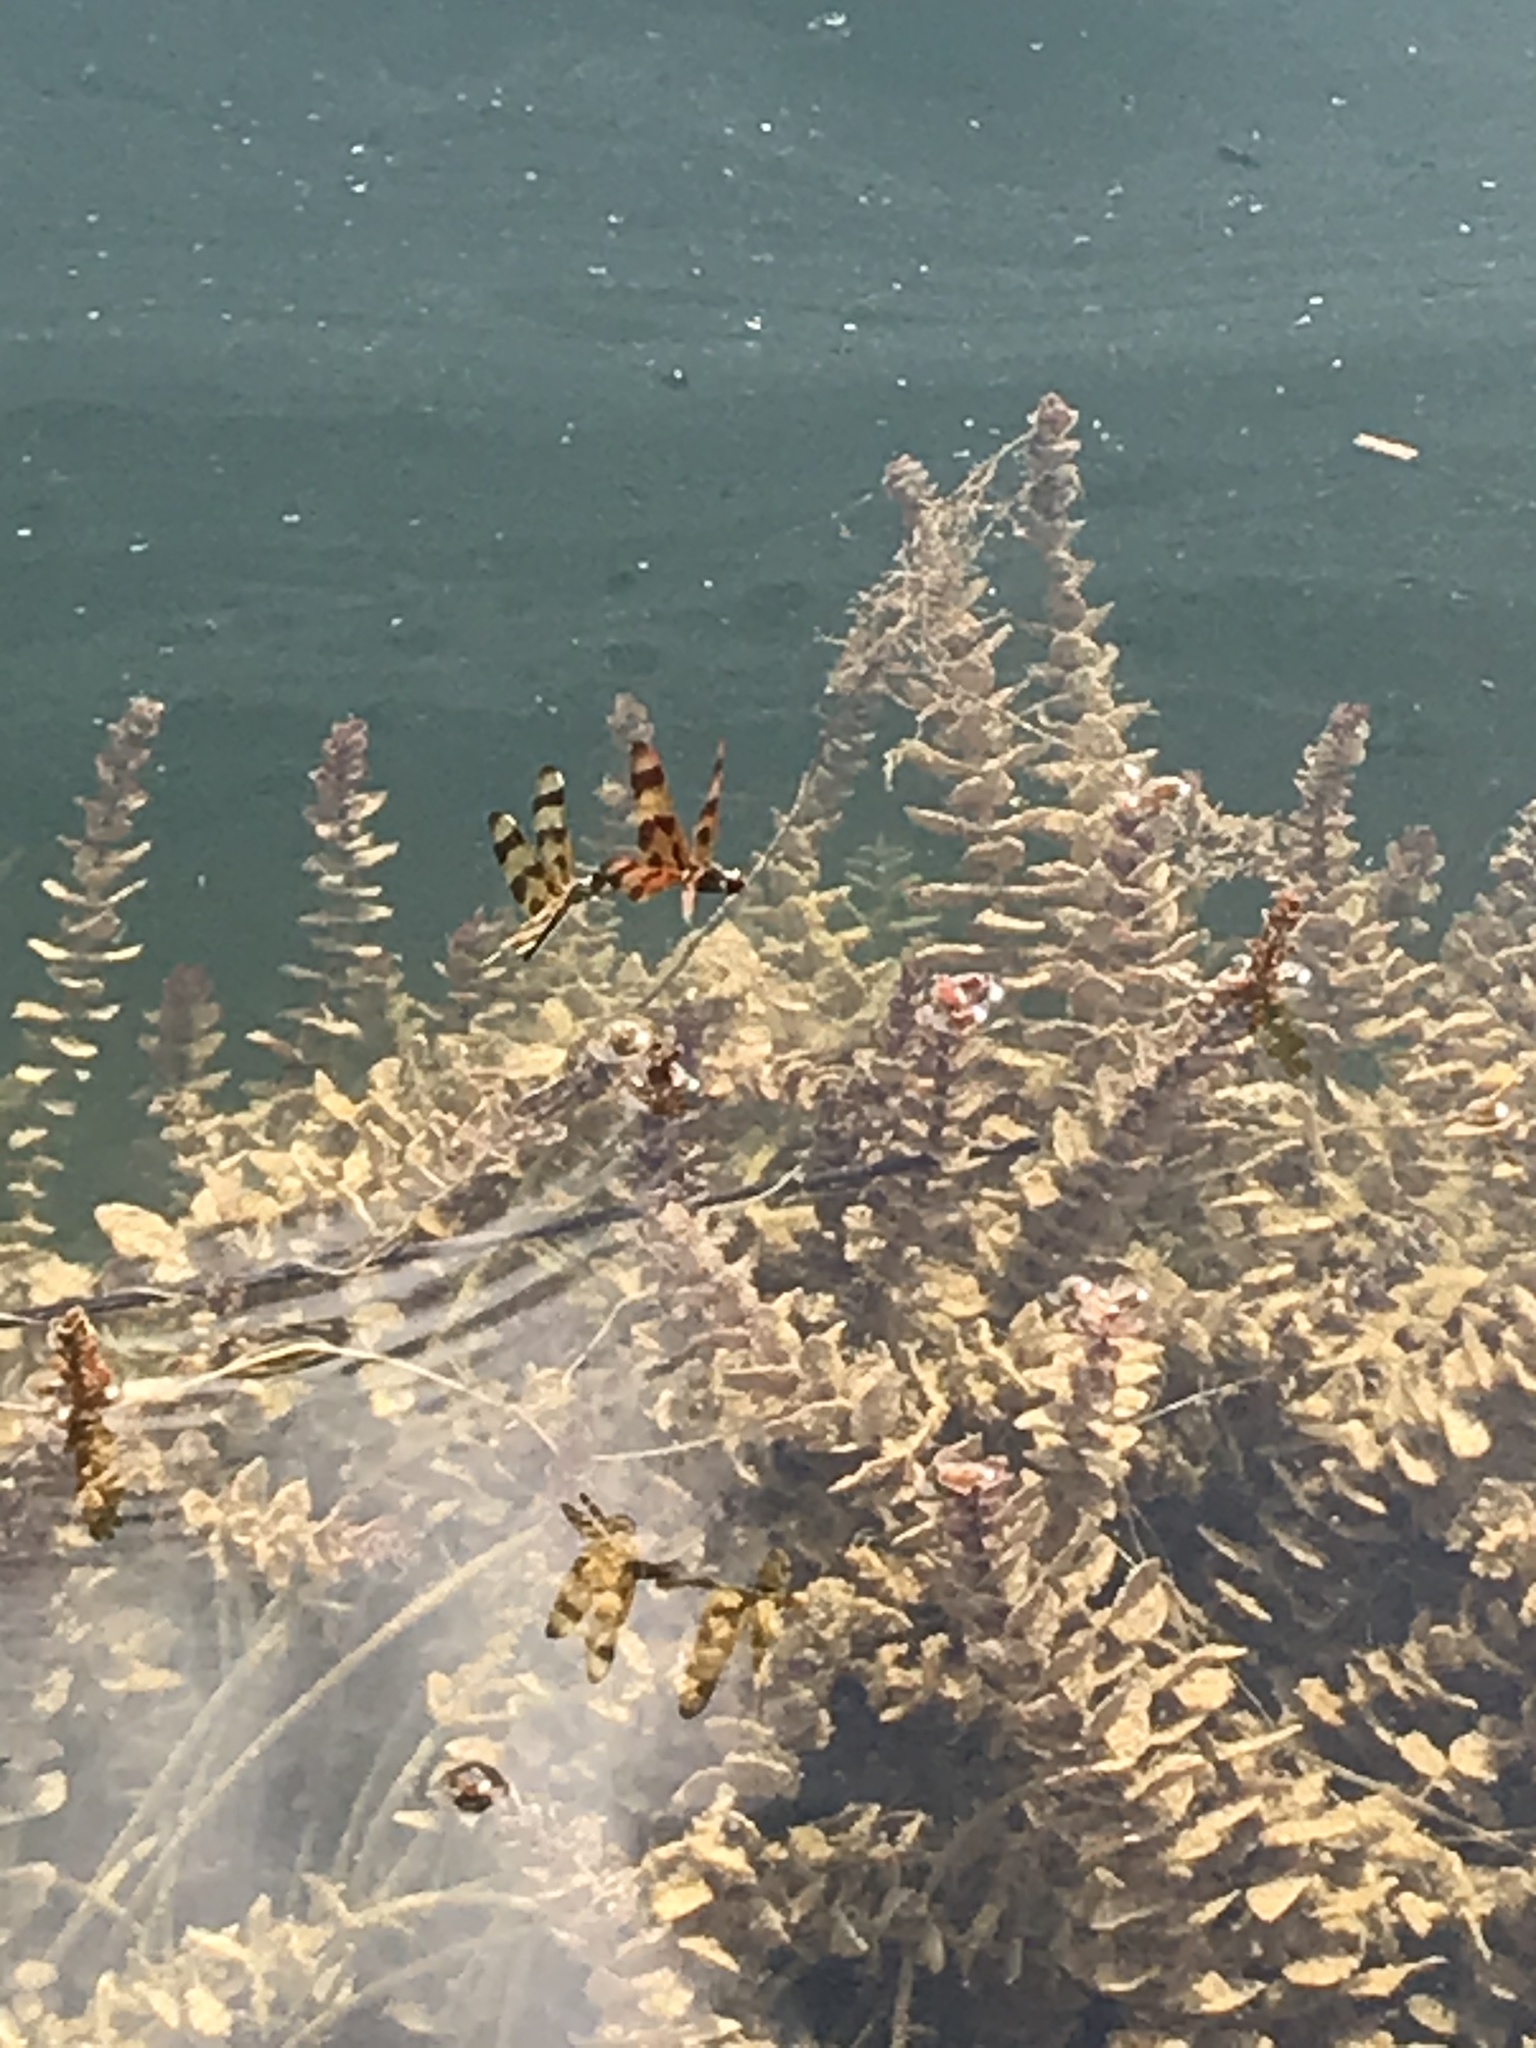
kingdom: Animalia
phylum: Arthropoda
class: Insecta
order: Odonata
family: Libellulidae
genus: Celithemis
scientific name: Celithemis eponina
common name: Halloween pennant
